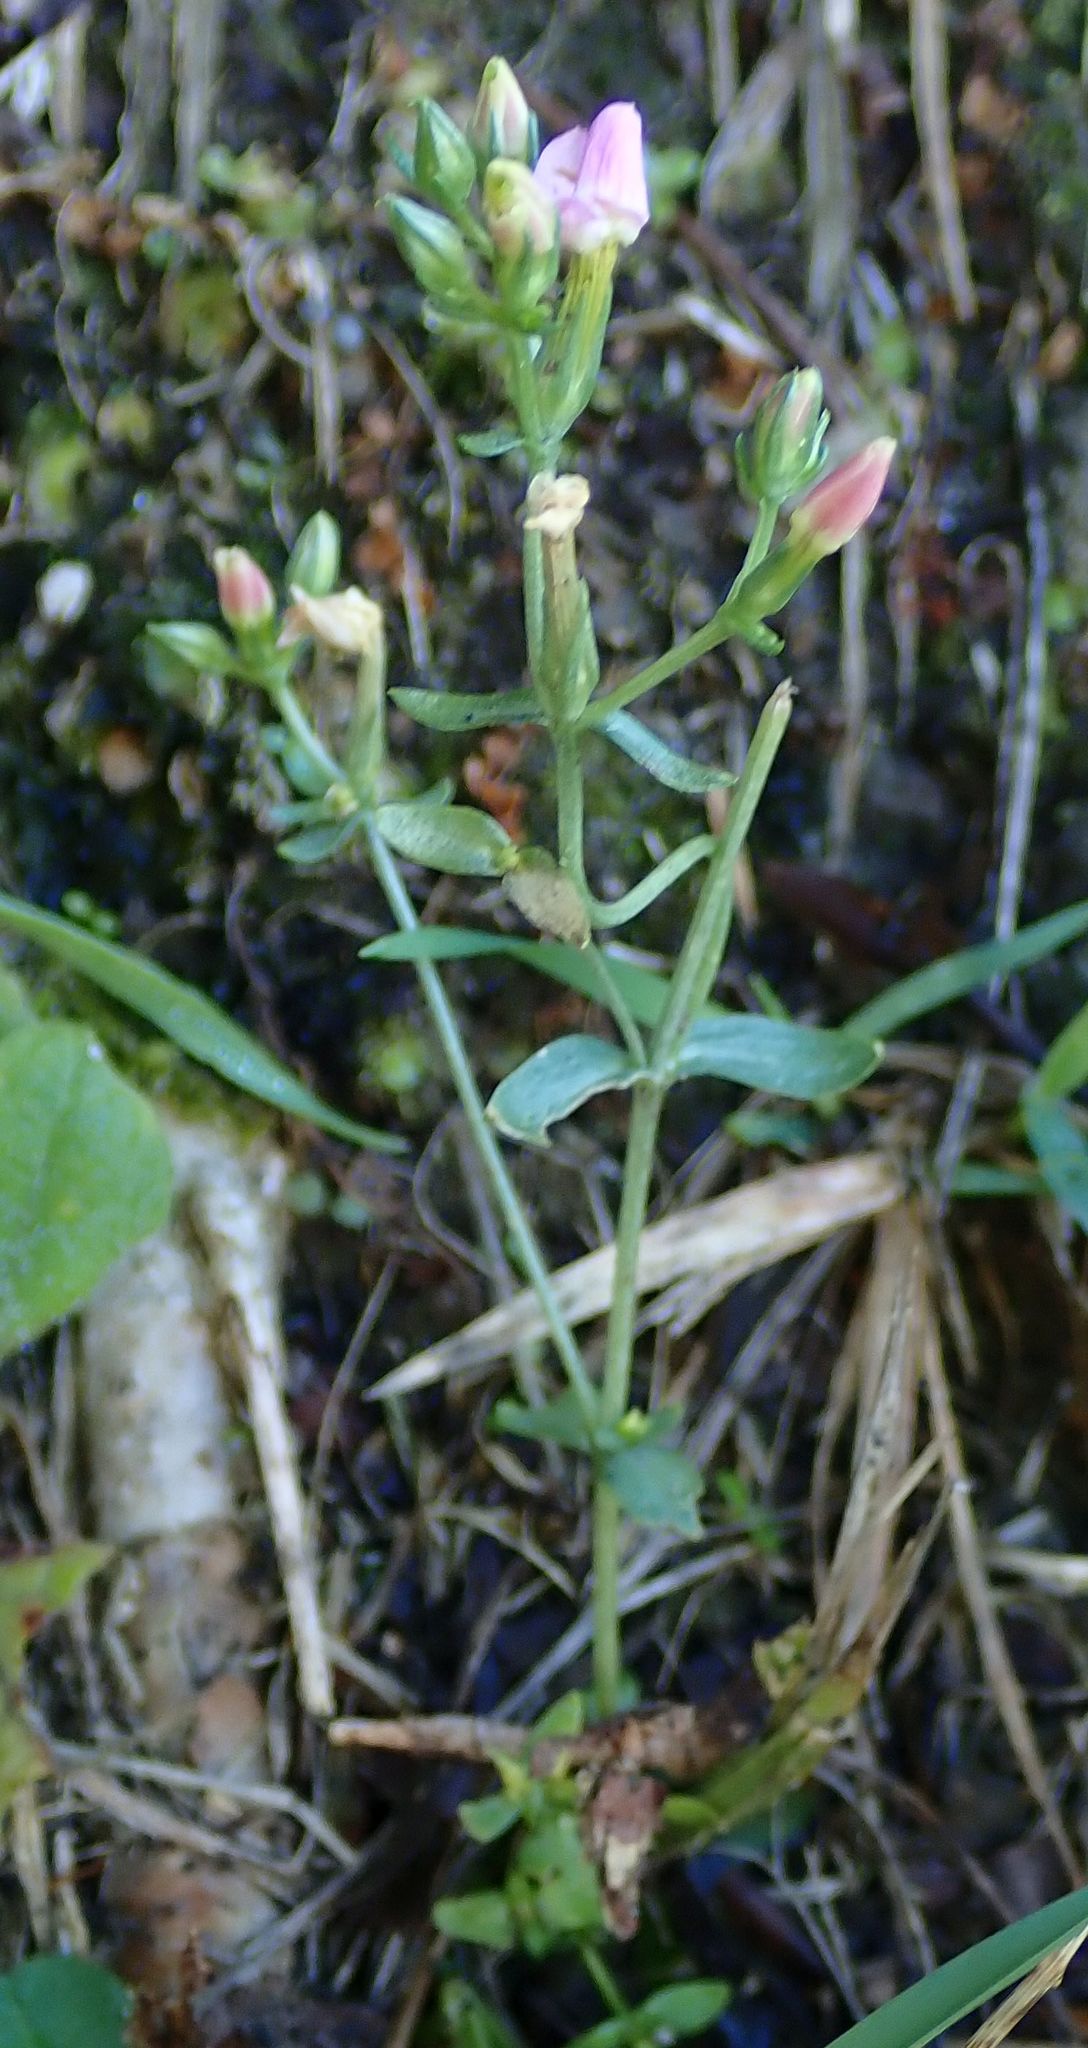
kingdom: Plantae
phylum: Tracheophyta
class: Magnoliopsida
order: Gentianales
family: Gentianaceae
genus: Centaurium
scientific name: Centaurium erythraea
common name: Common centaury
